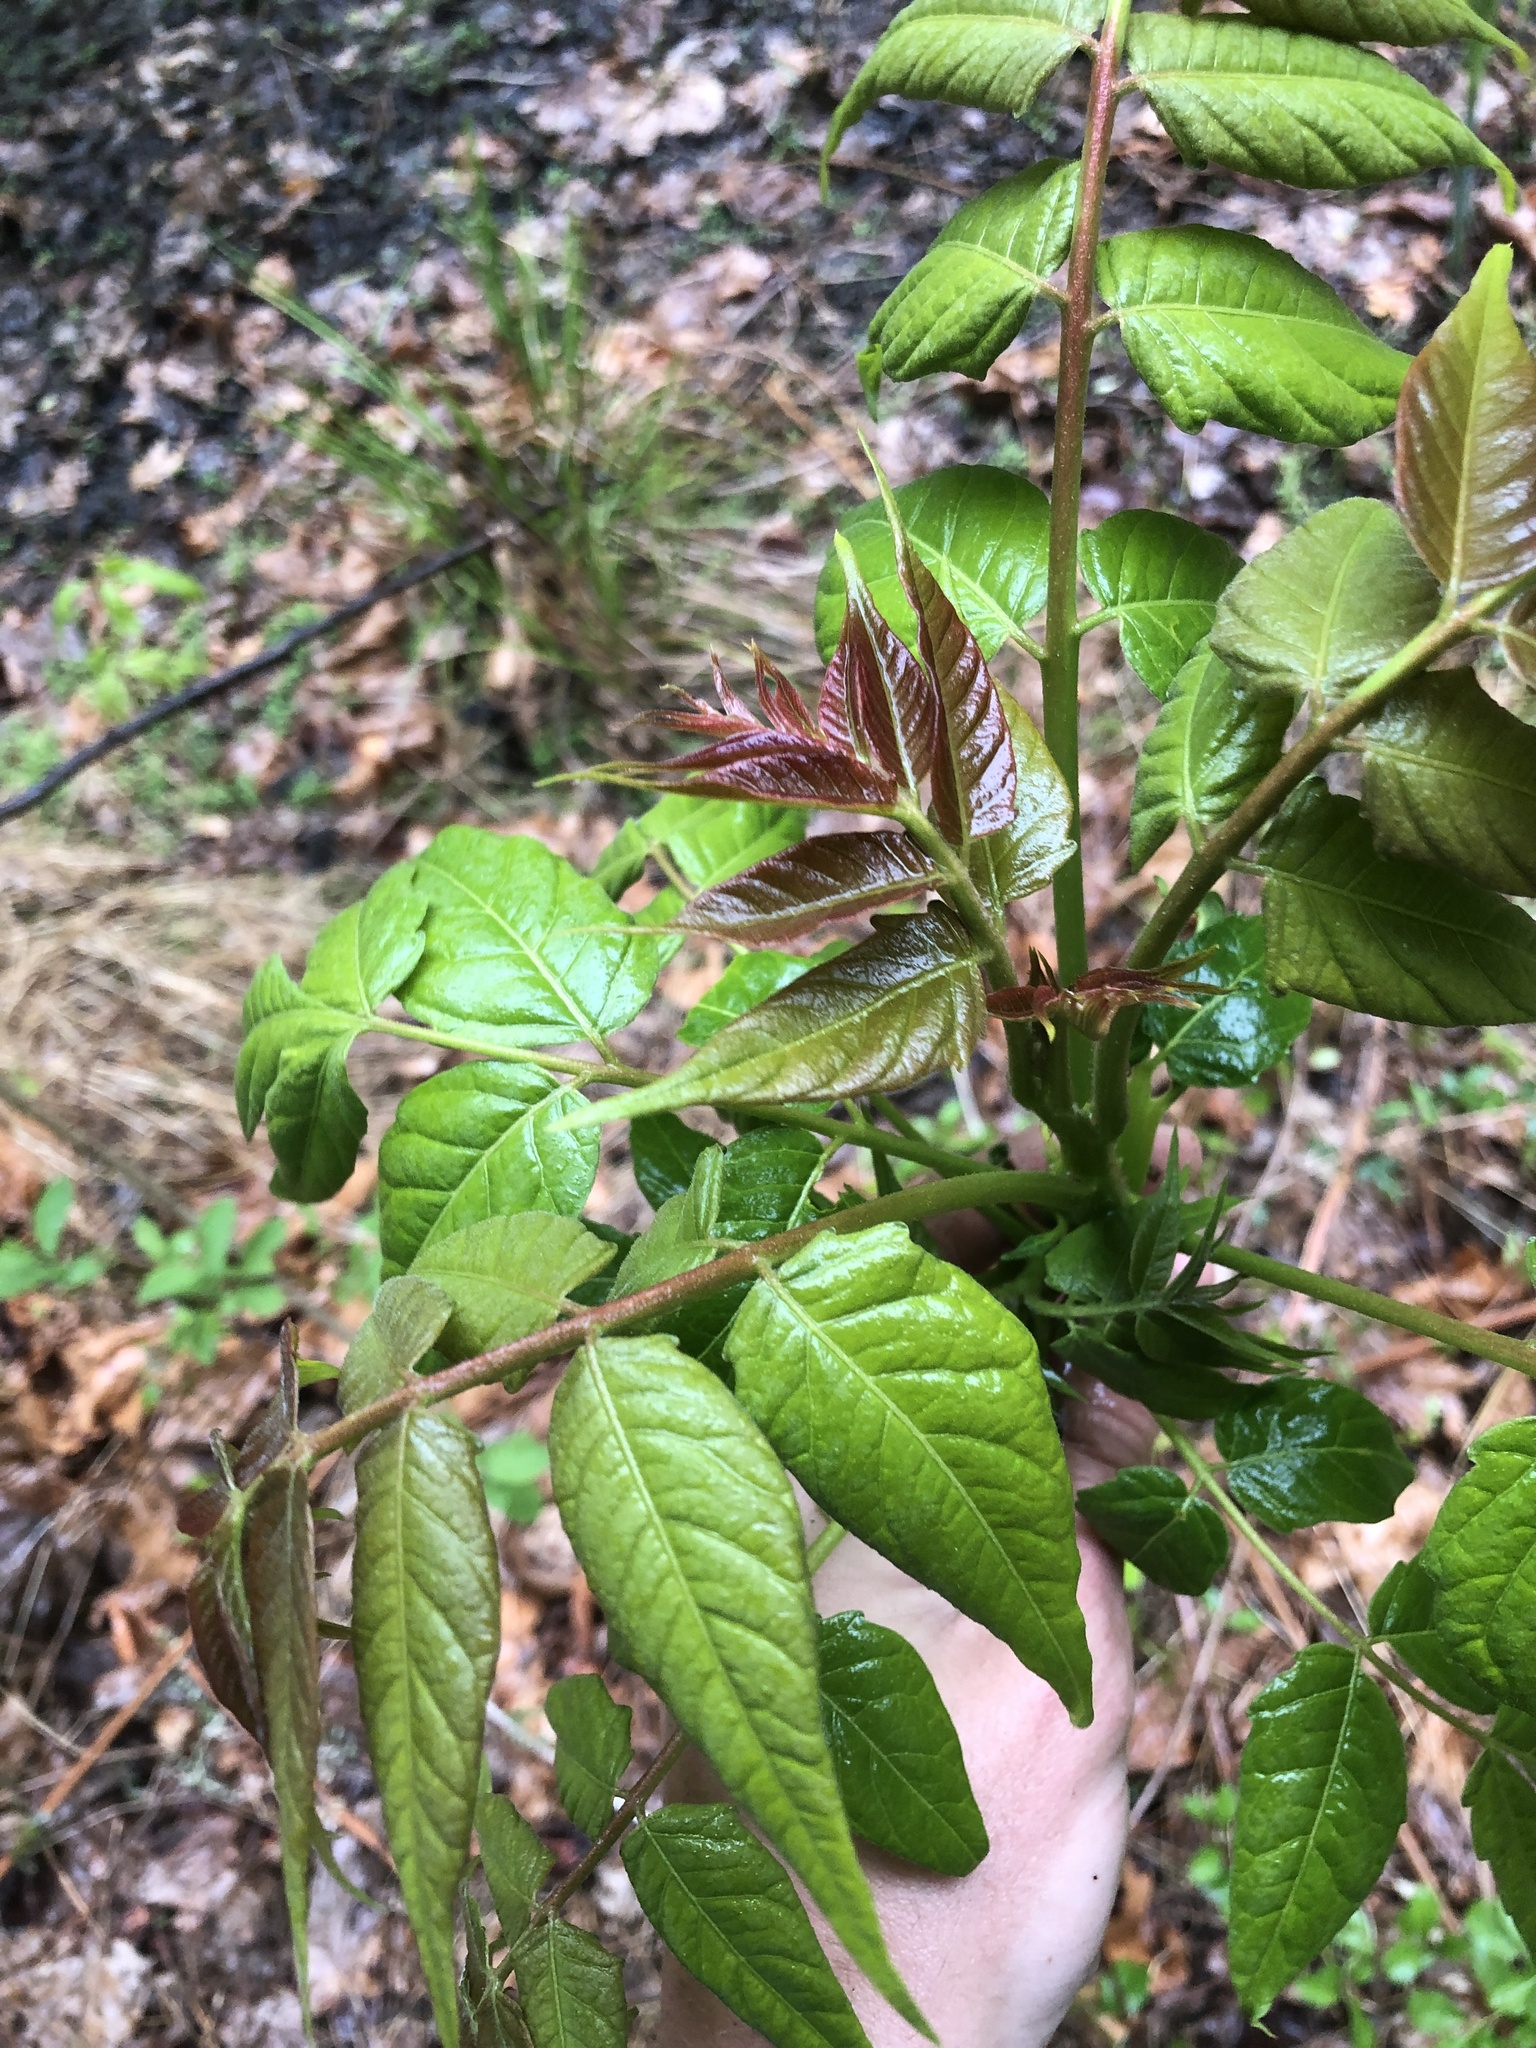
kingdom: Plantae
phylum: Tracheophyta
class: Magnoliopsida
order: Sapindales
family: Simaroubaceae
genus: Ailanthus
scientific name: Ailanthus altissima
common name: Tree-of-heaven
